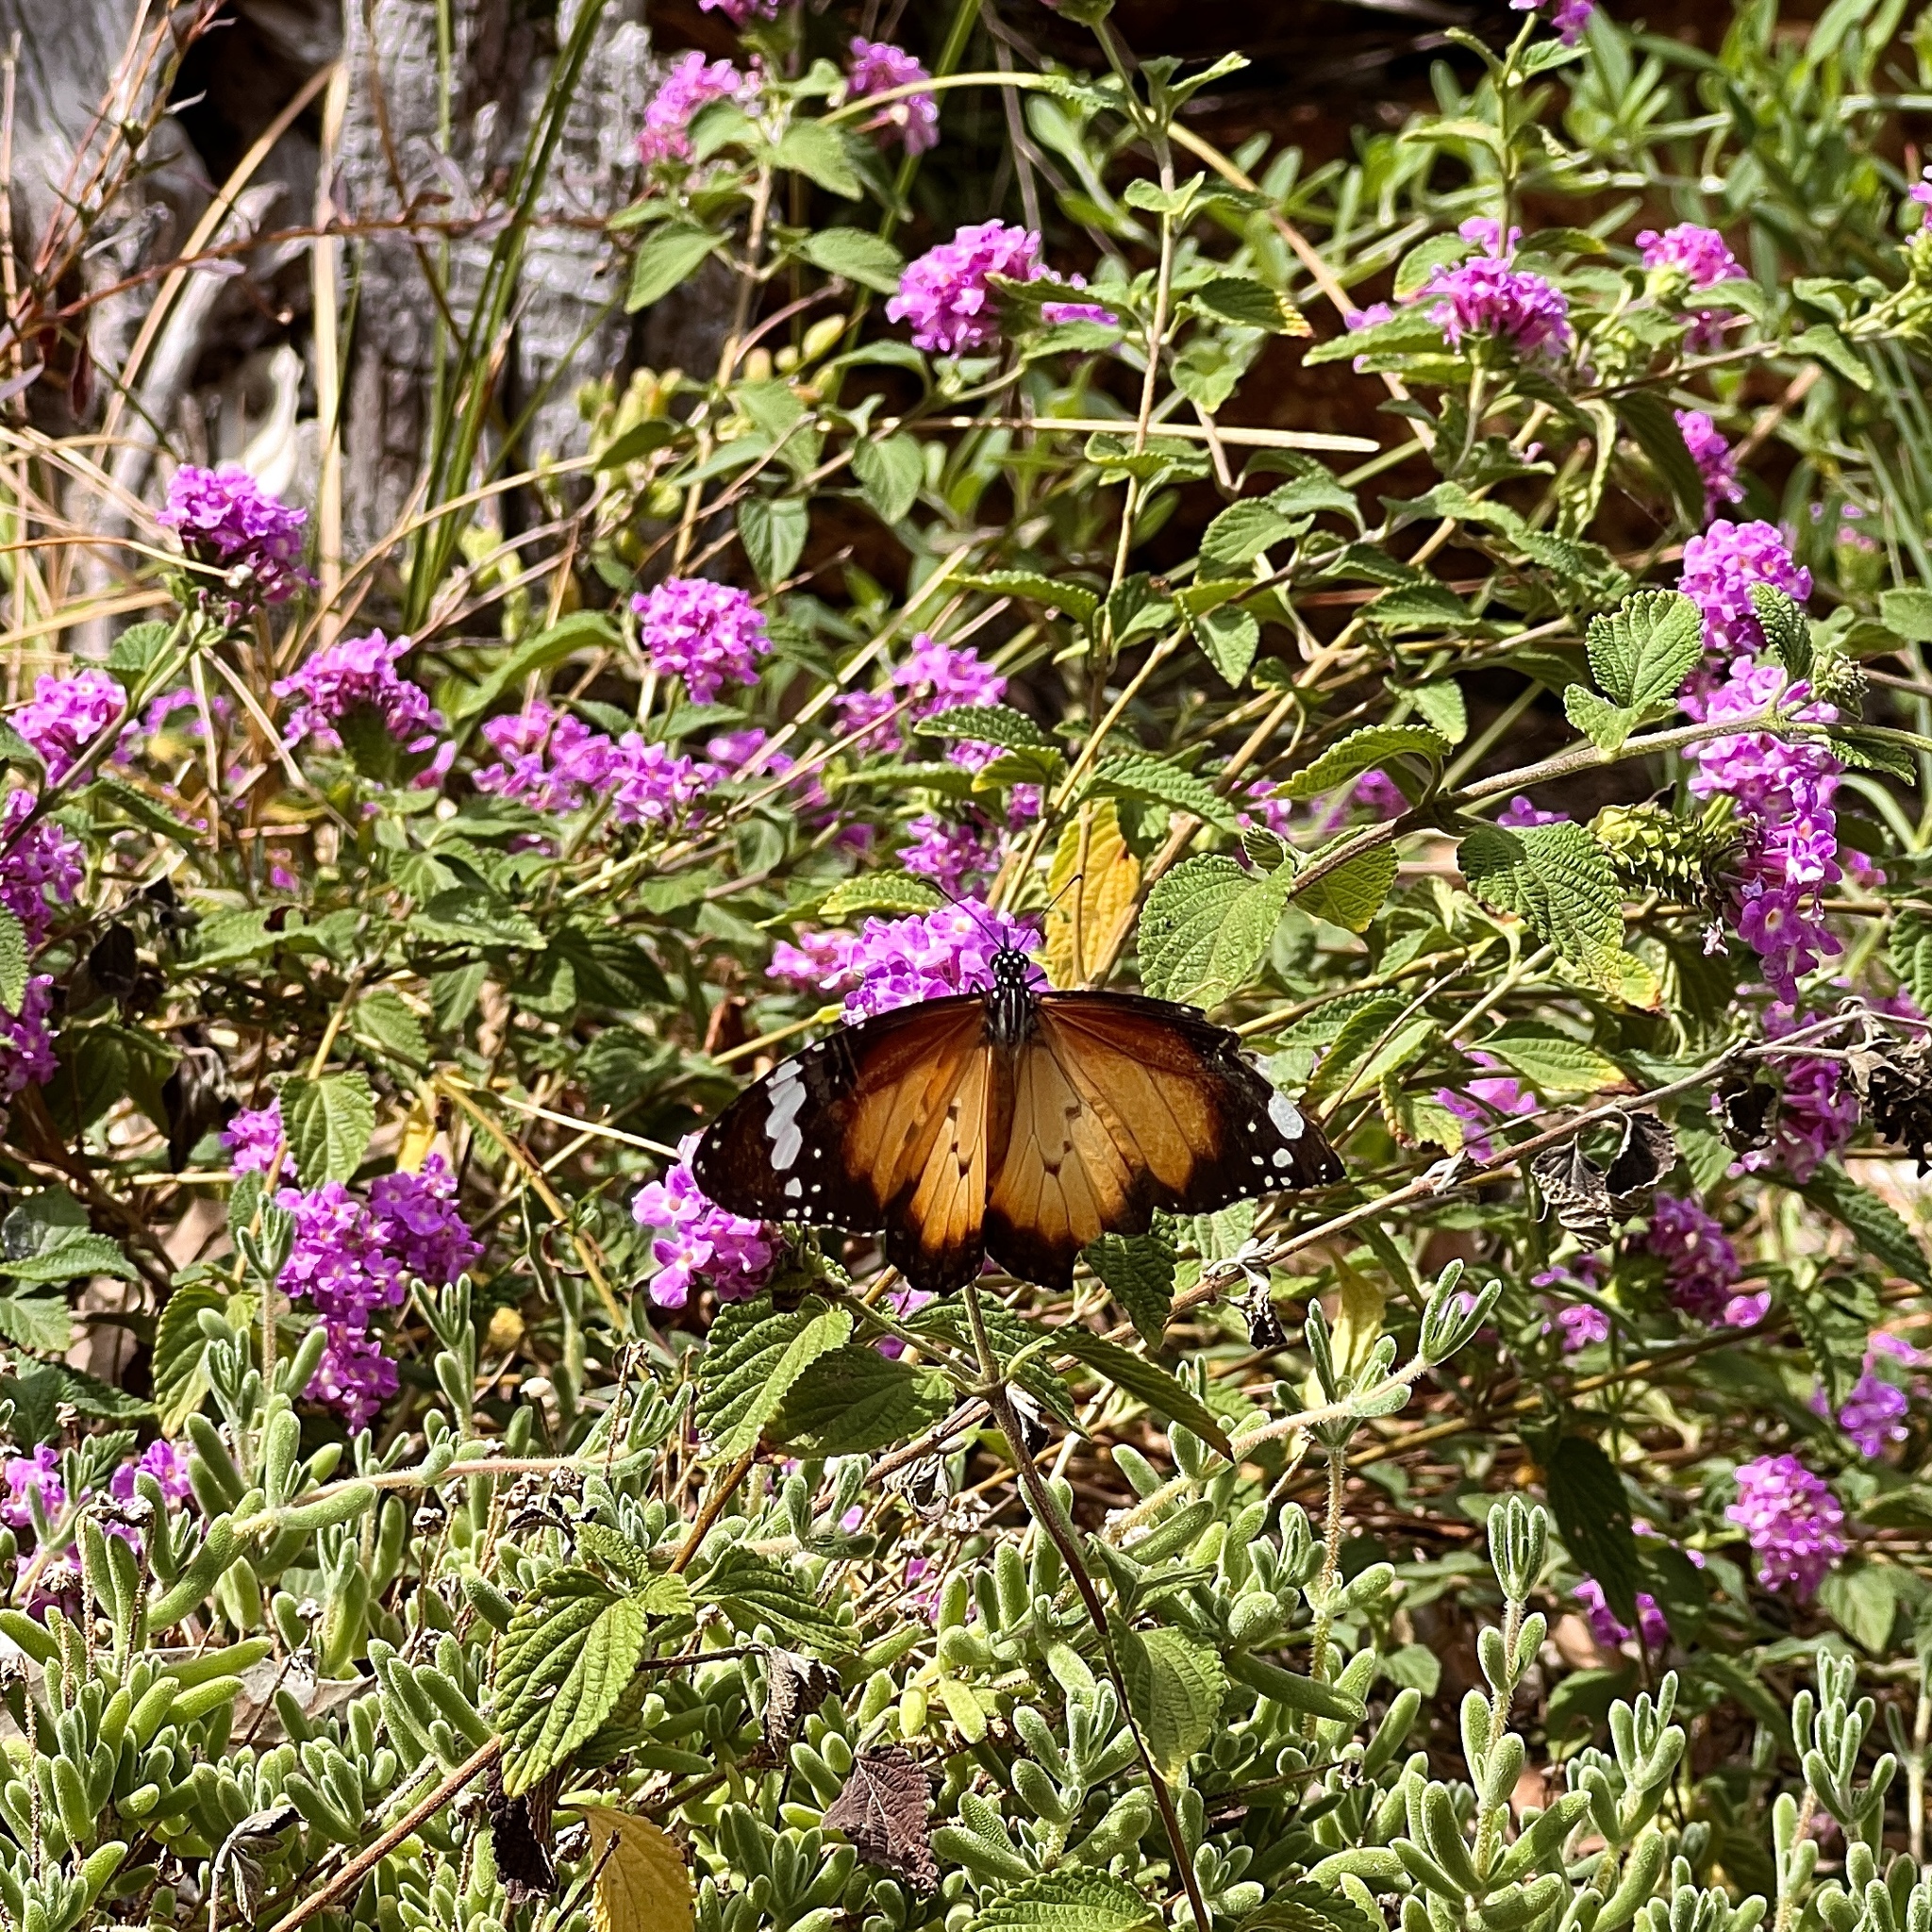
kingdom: Animalia
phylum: Arthropoda
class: Insecta
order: Lepidoptera
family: Nymphalidae
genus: Danaus
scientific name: Danaus chrysippus
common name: Plain tiger
